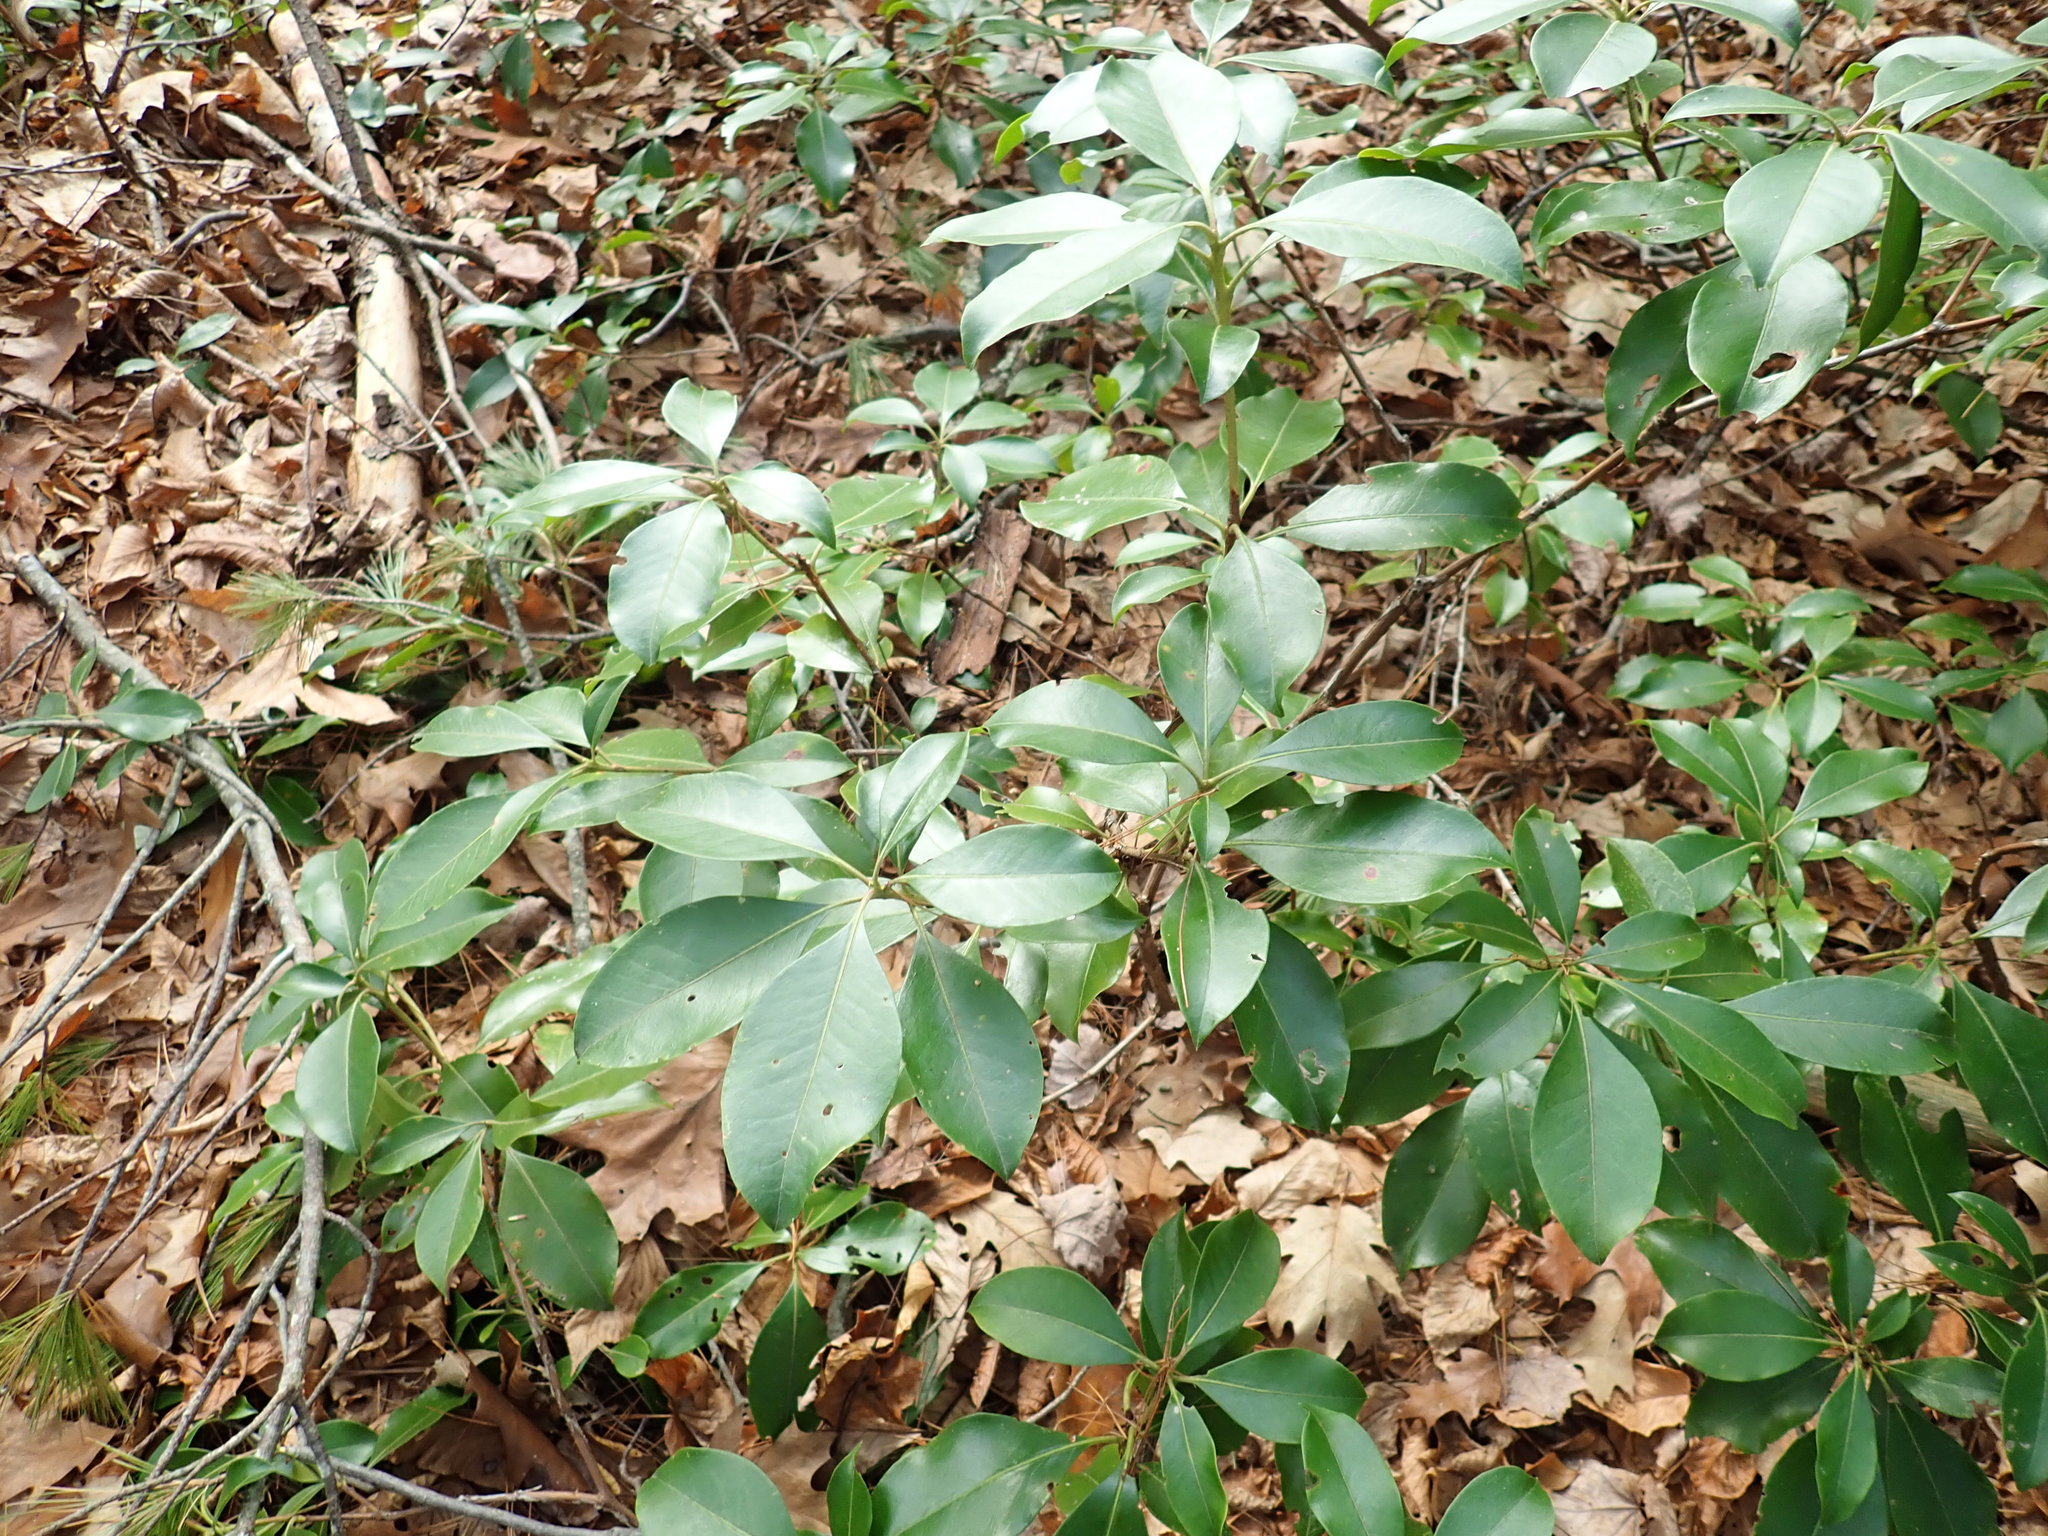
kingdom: Plantae
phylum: Tracheophyta
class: Magnoliopsida
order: Ericales
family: Ericaceae
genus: Kalmia
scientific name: Kalmia latifolia
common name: Mountain-laurel
